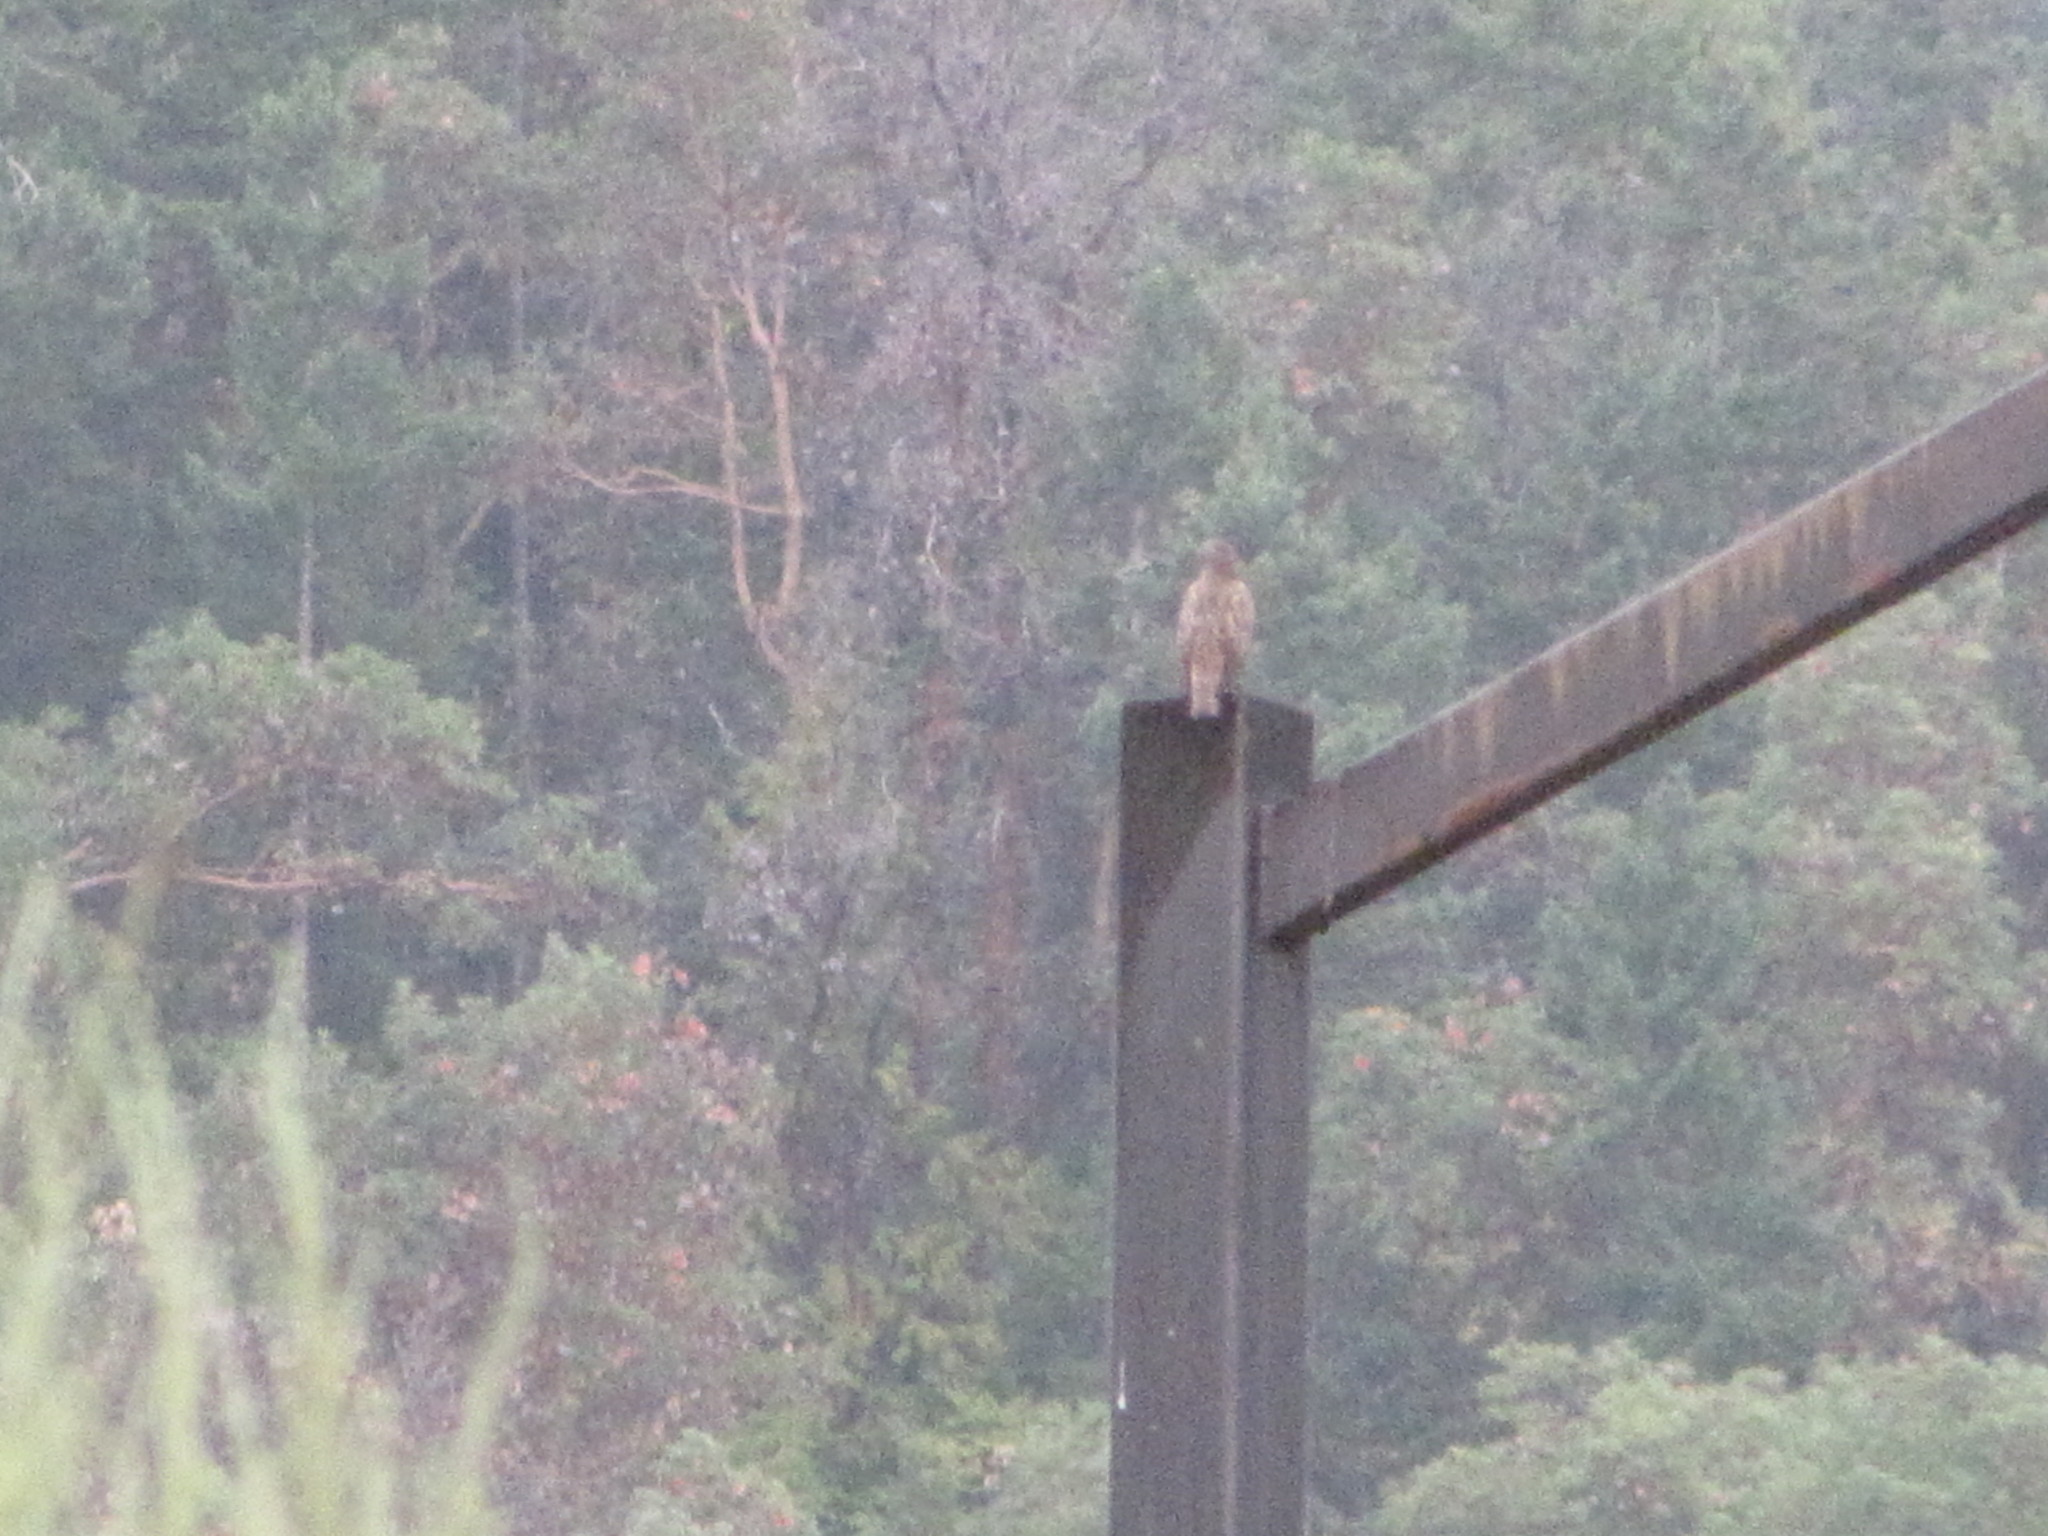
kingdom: Animalia
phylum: Chordata
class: Aves
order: Accipitriformes
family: Accipitridae
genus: Buteo
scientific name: Buteo jamaicensis
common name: Red-tailed hawk
